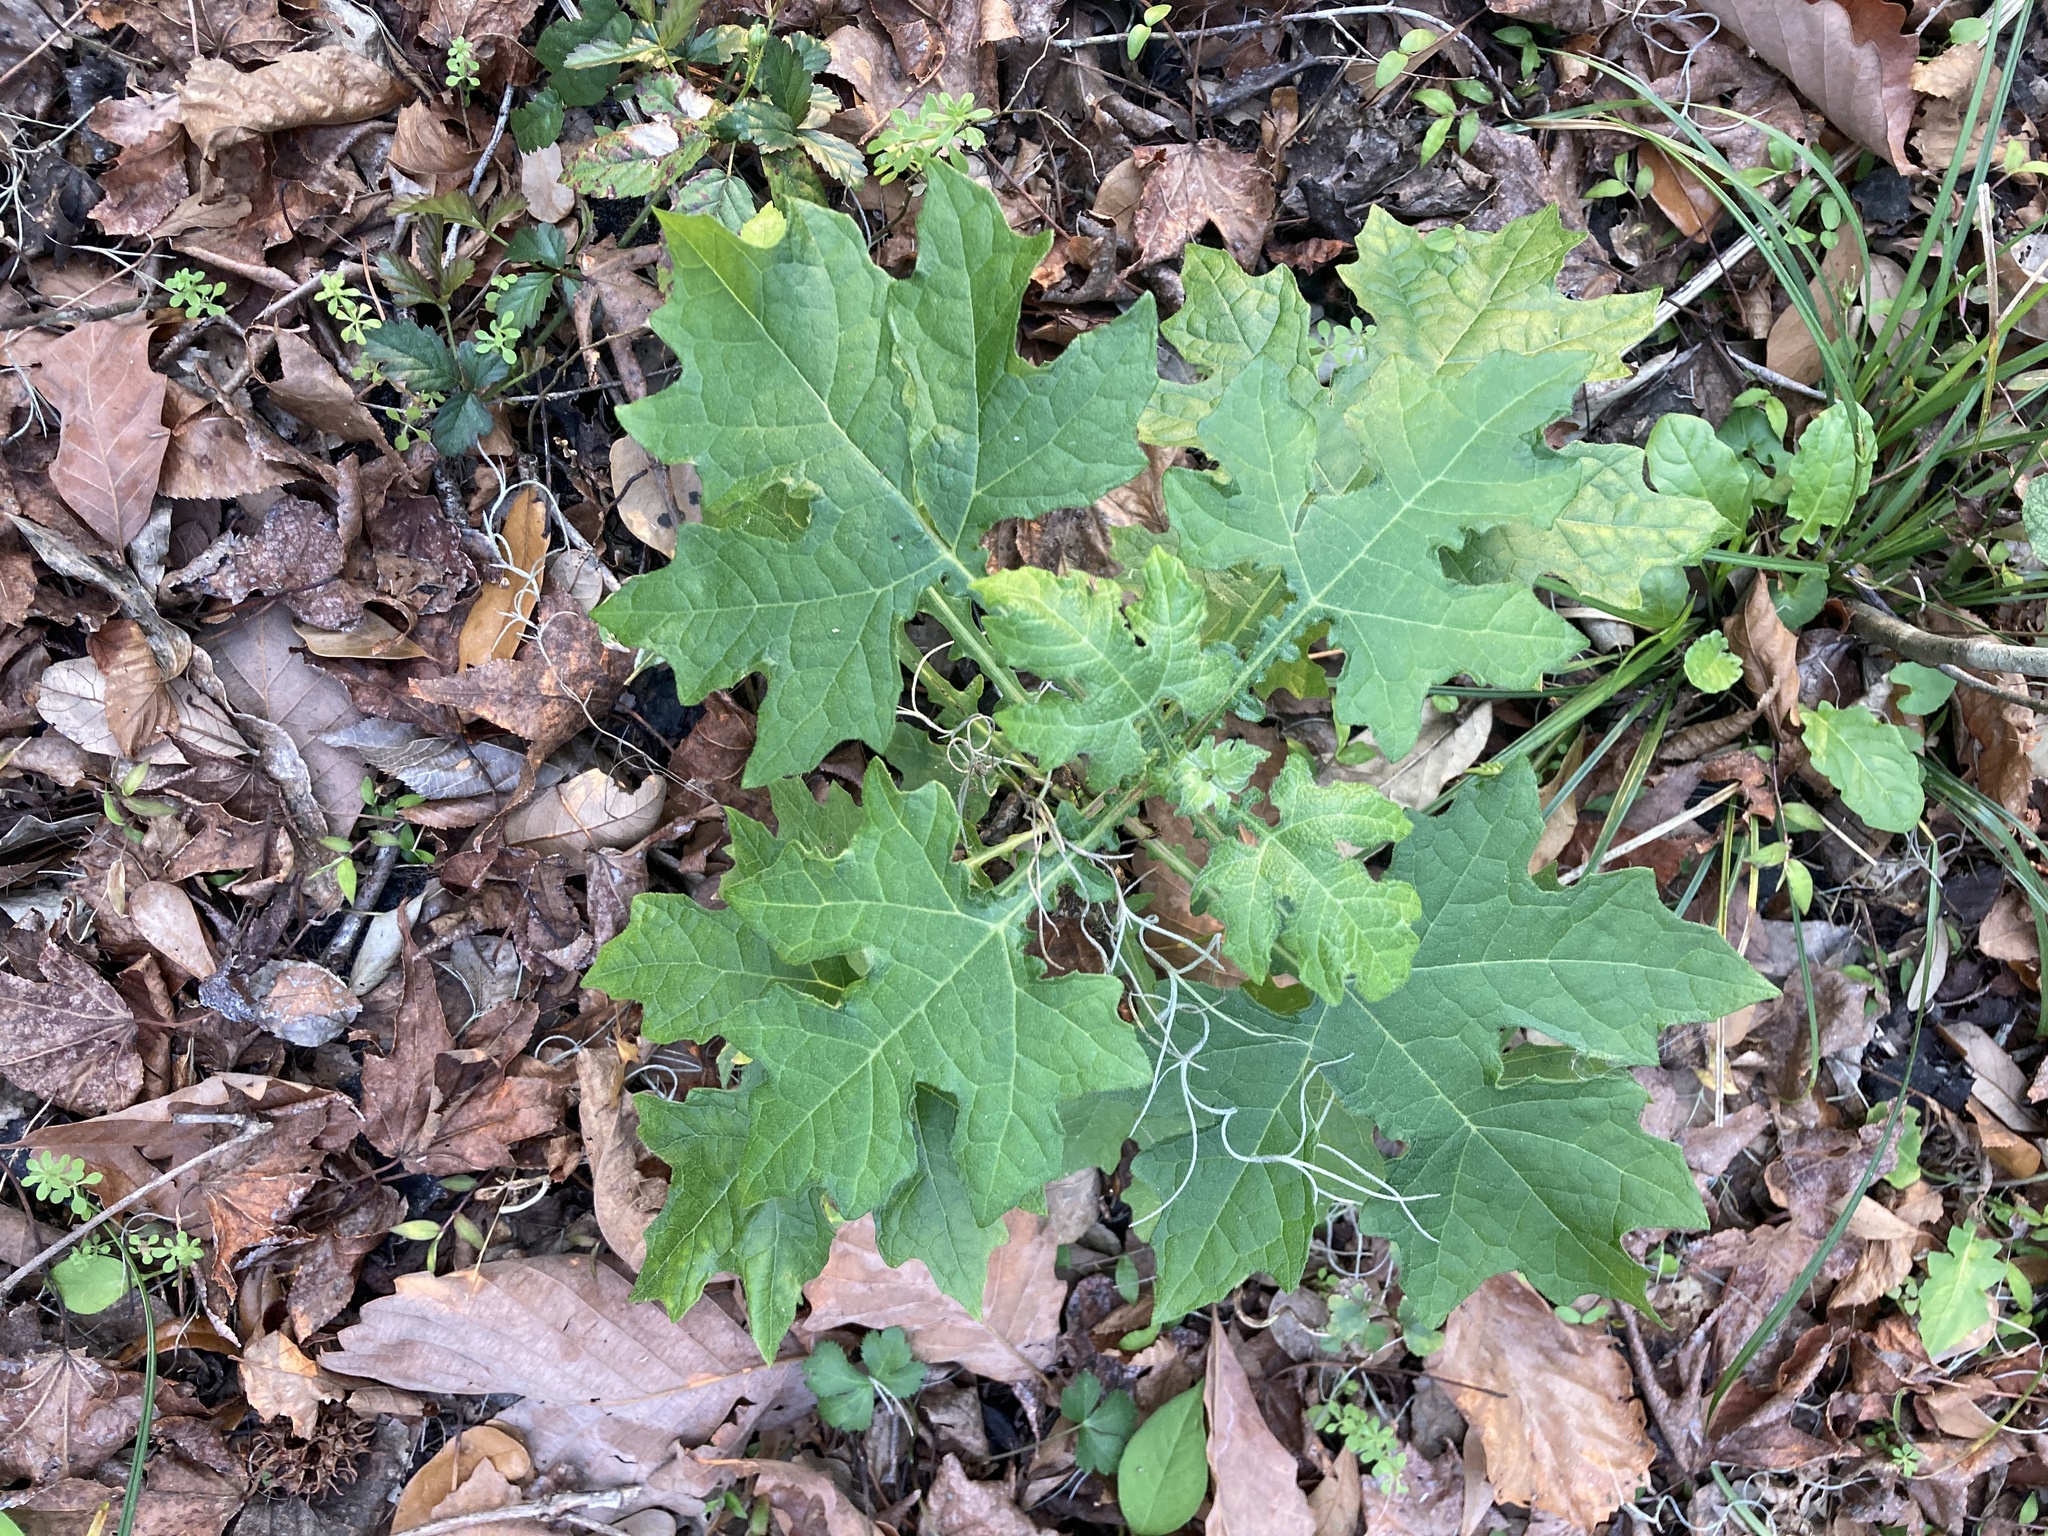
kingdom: Plantae
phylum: Tracheophyta
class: Magnoliopsida
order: Asterales
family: Asteraceae
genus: Smallanthus
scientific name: Smallanthus uvedalia
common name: Bear's-foot
